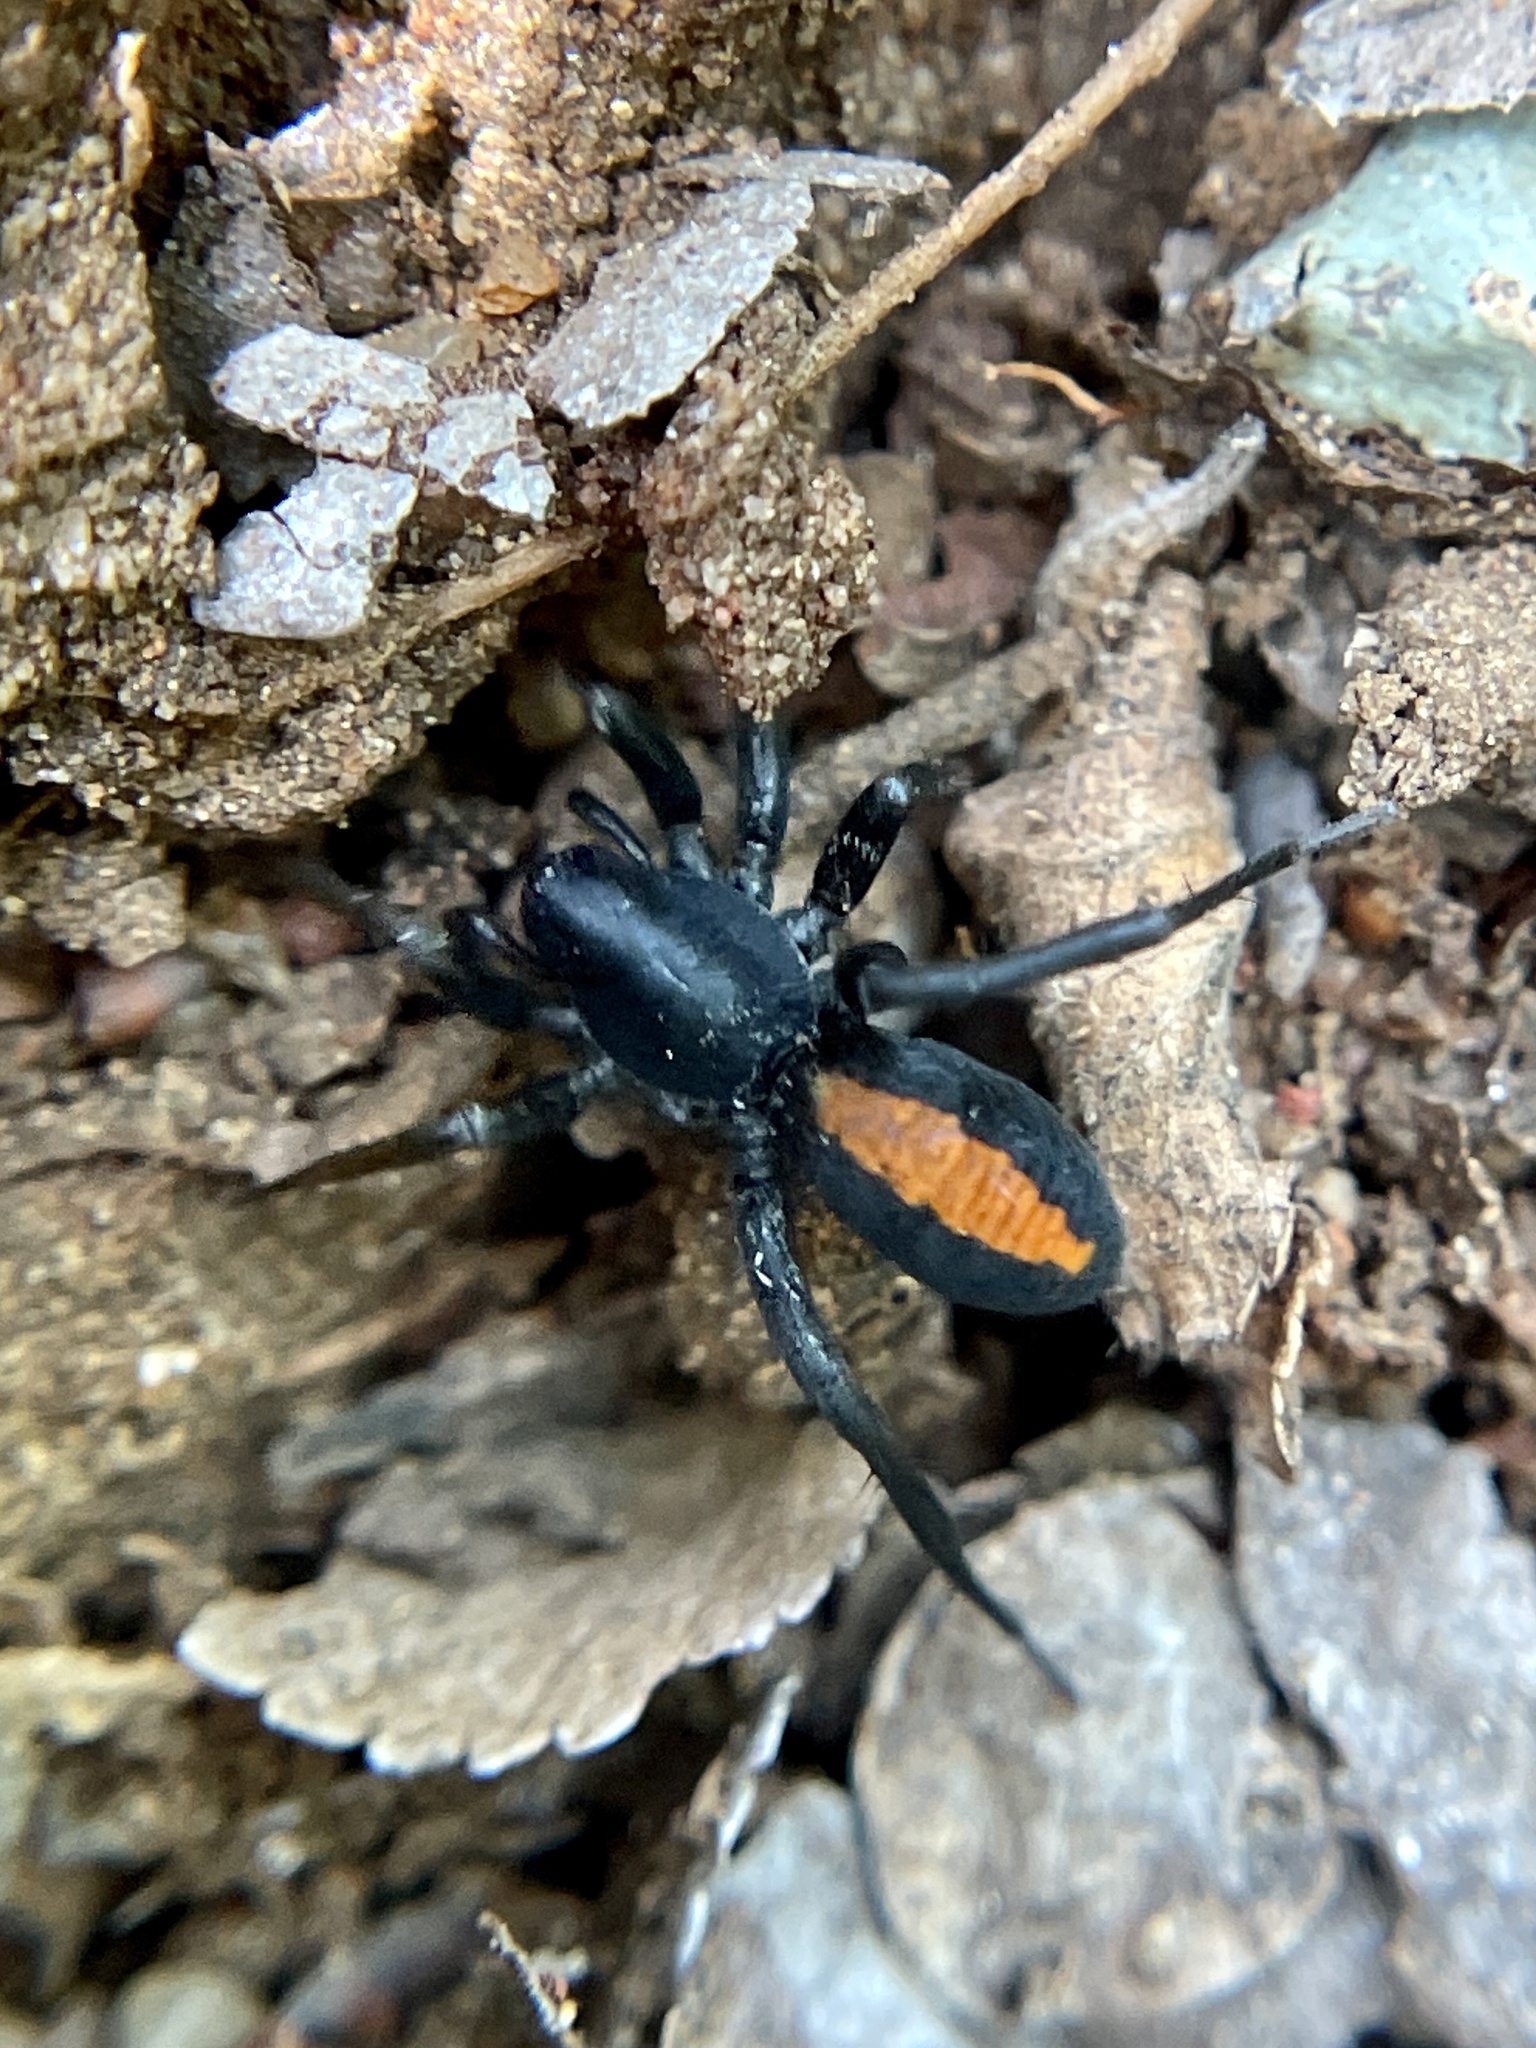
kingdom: Animalia
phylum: Arthropoda
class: Arachnida
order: Araneae
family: Corinnidae
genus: Castianeira
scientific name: Castianeira descripta
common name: Red-spotted ant-mimic sac spider
